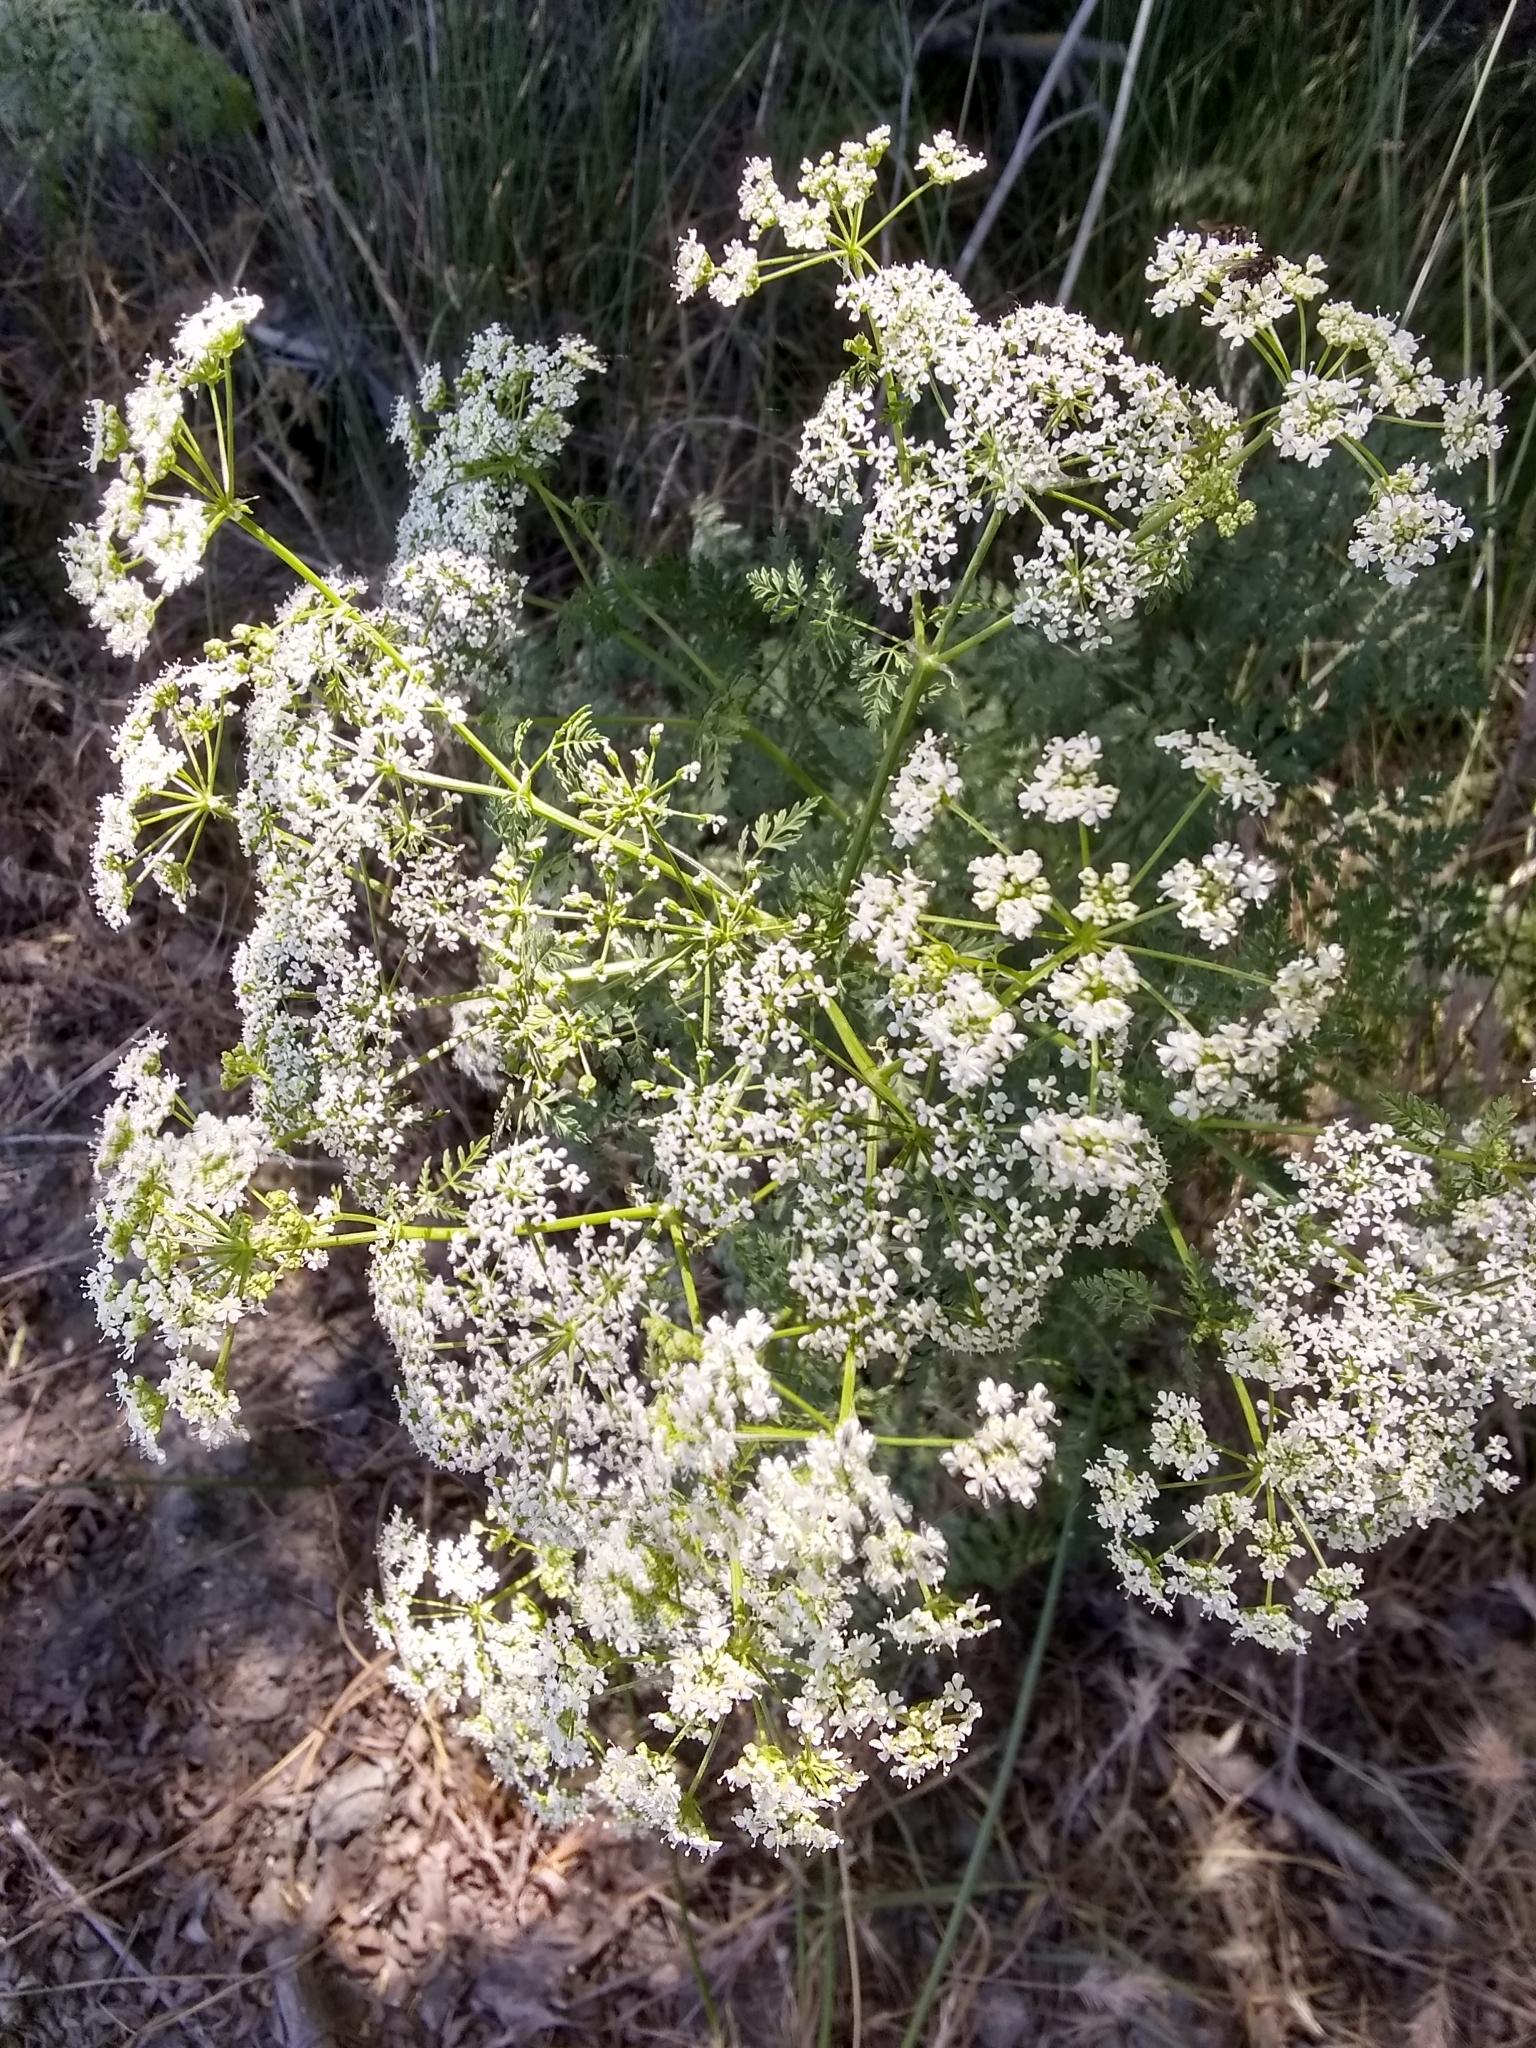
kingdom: Plantae
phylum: Tracheophyta
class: Magnoliopsida
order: Apiales
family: Apiaceae
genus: Conium
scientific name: Conium maculatum
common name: Hemlock
